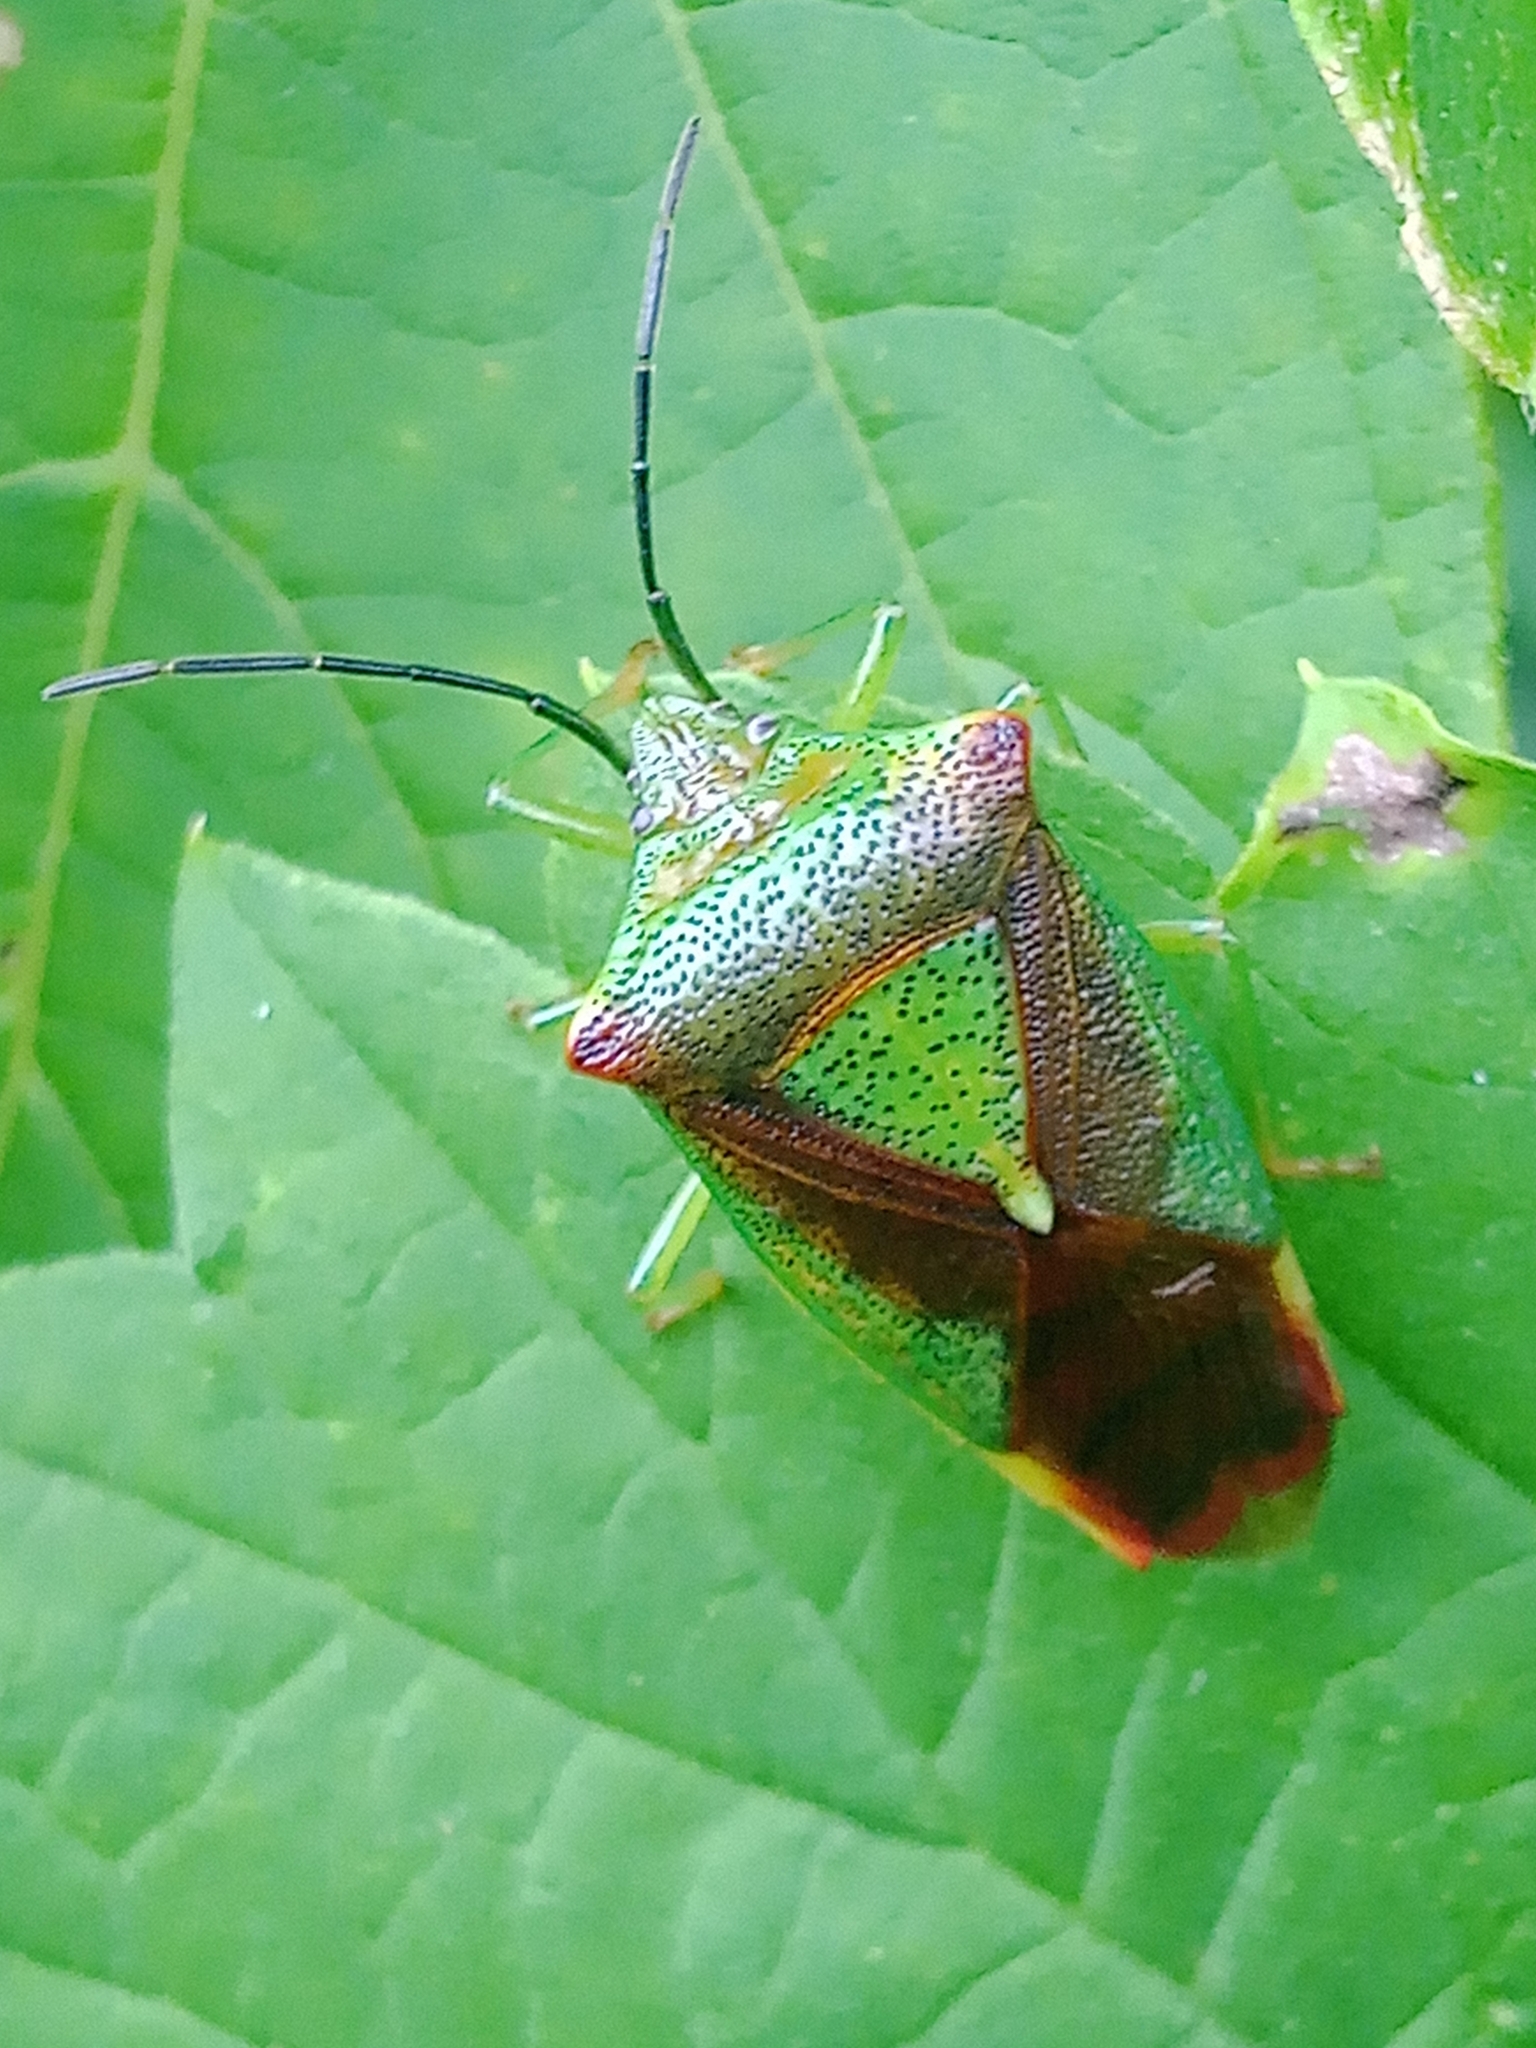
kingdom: Animalia
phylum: Arthropoda
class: Insecta
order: Hemiptera
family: Acanthosomatidae
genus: Acanthosoma
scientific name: Acanthosoma haemorrhoidale
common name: Hawthorn shieldbug
